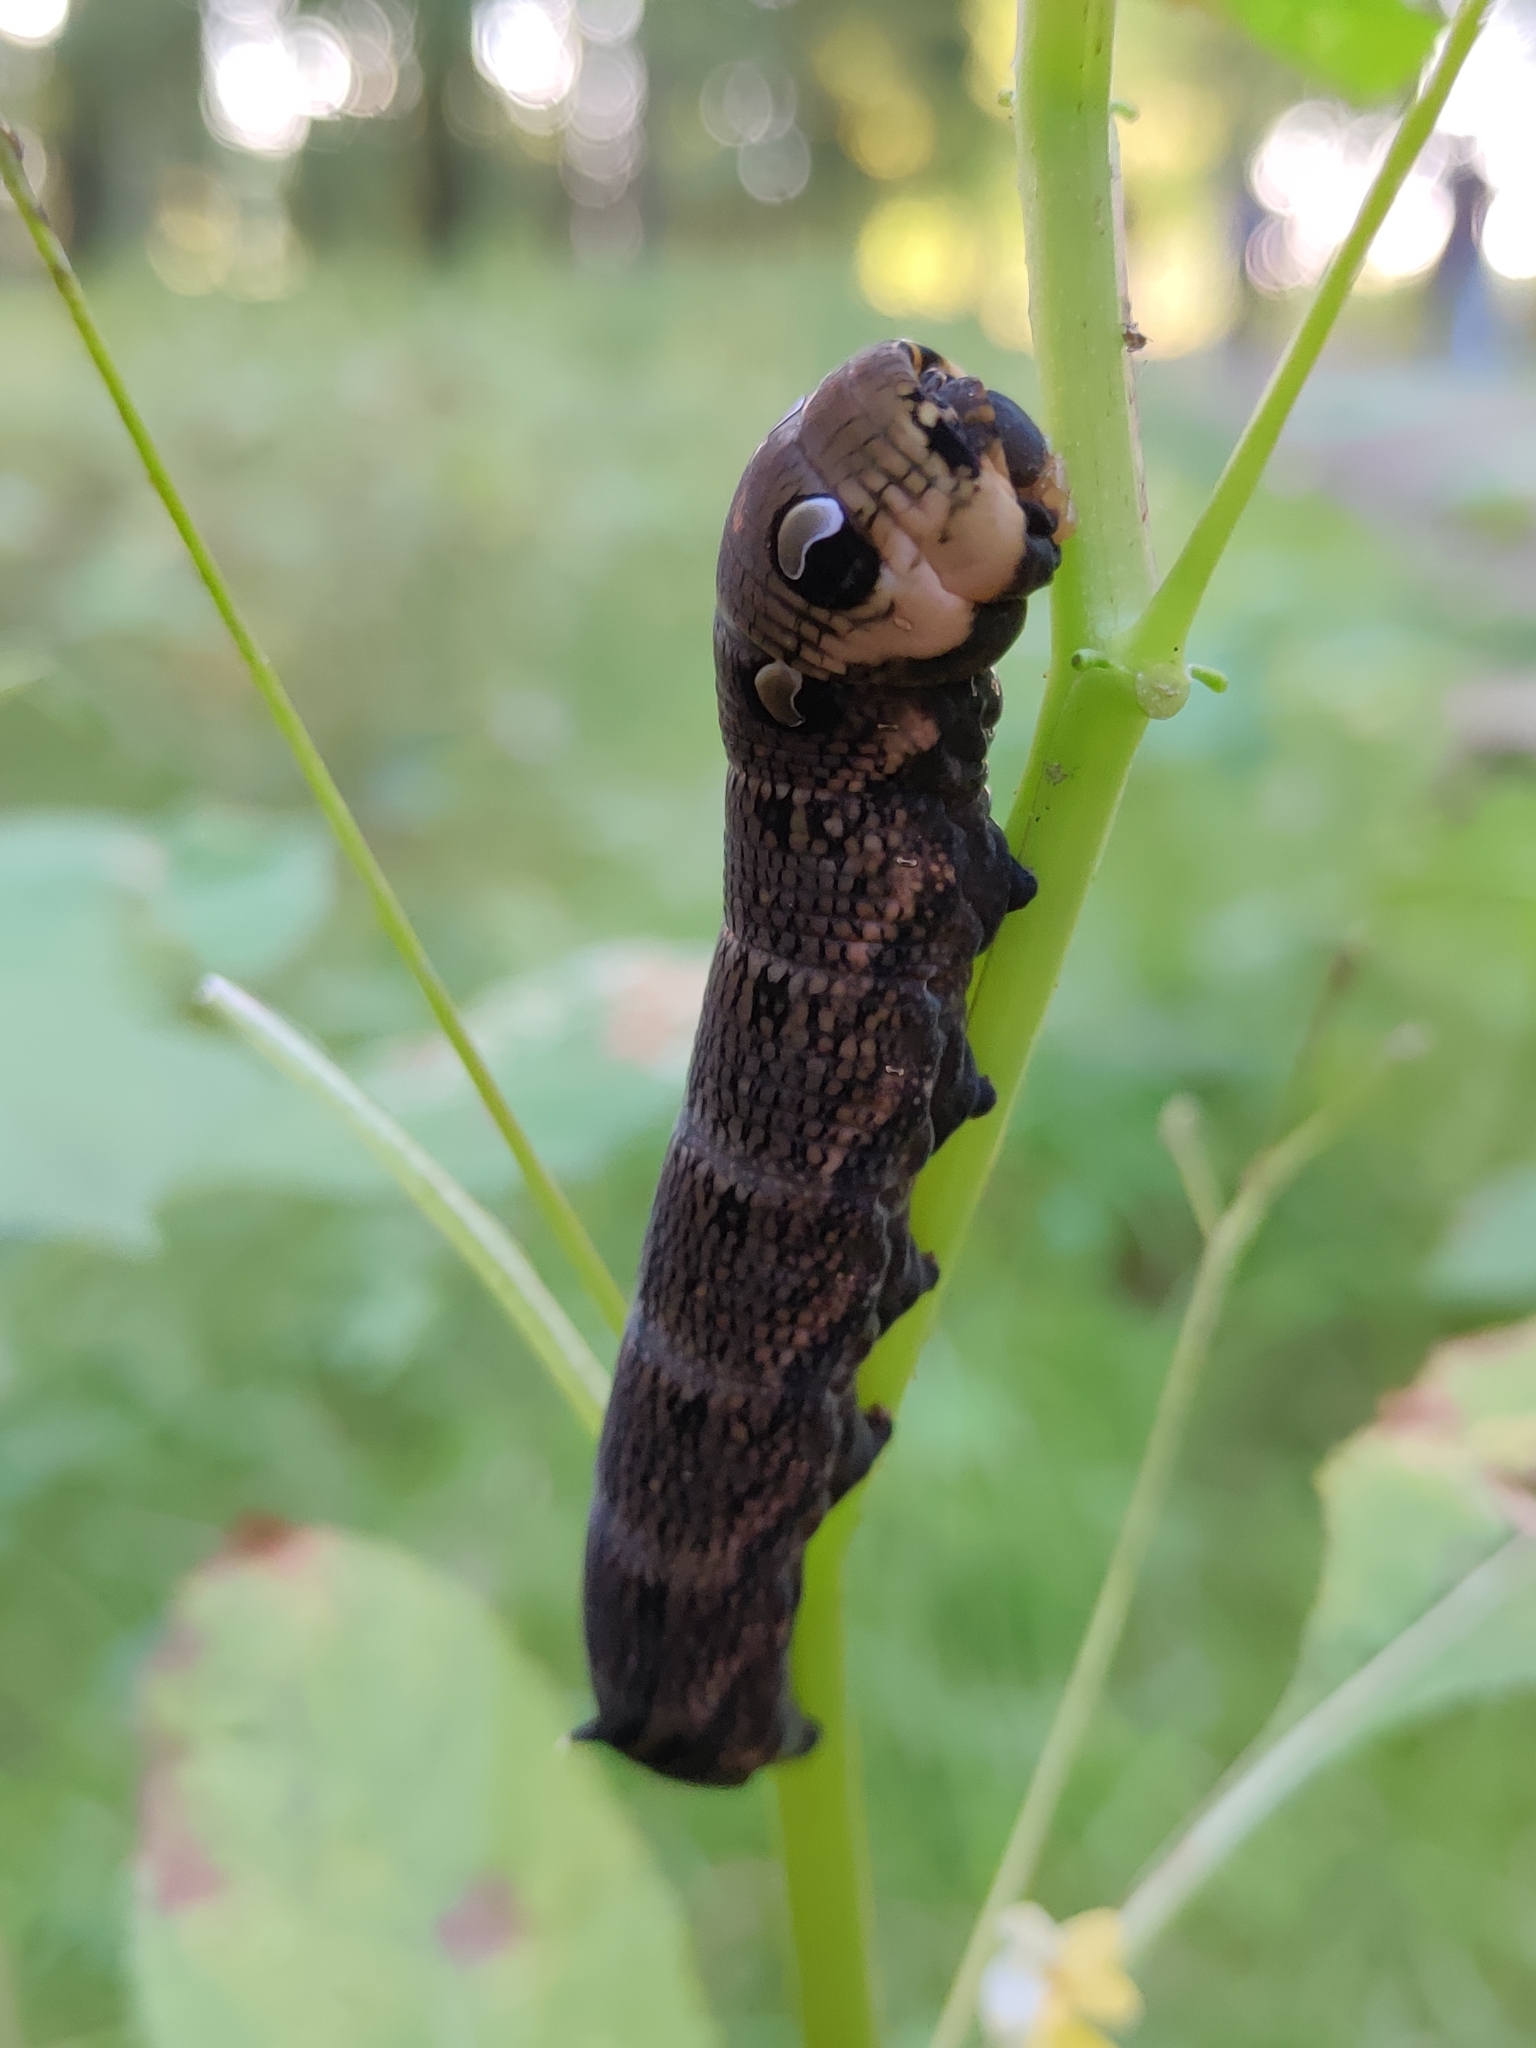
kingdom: Animalia
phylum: Arthropoda
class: Insecta
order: Lepidoptera
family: Sphingidae
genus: Deilephila
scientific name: Deilephila elpenor
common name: Elephant hawk-moth
